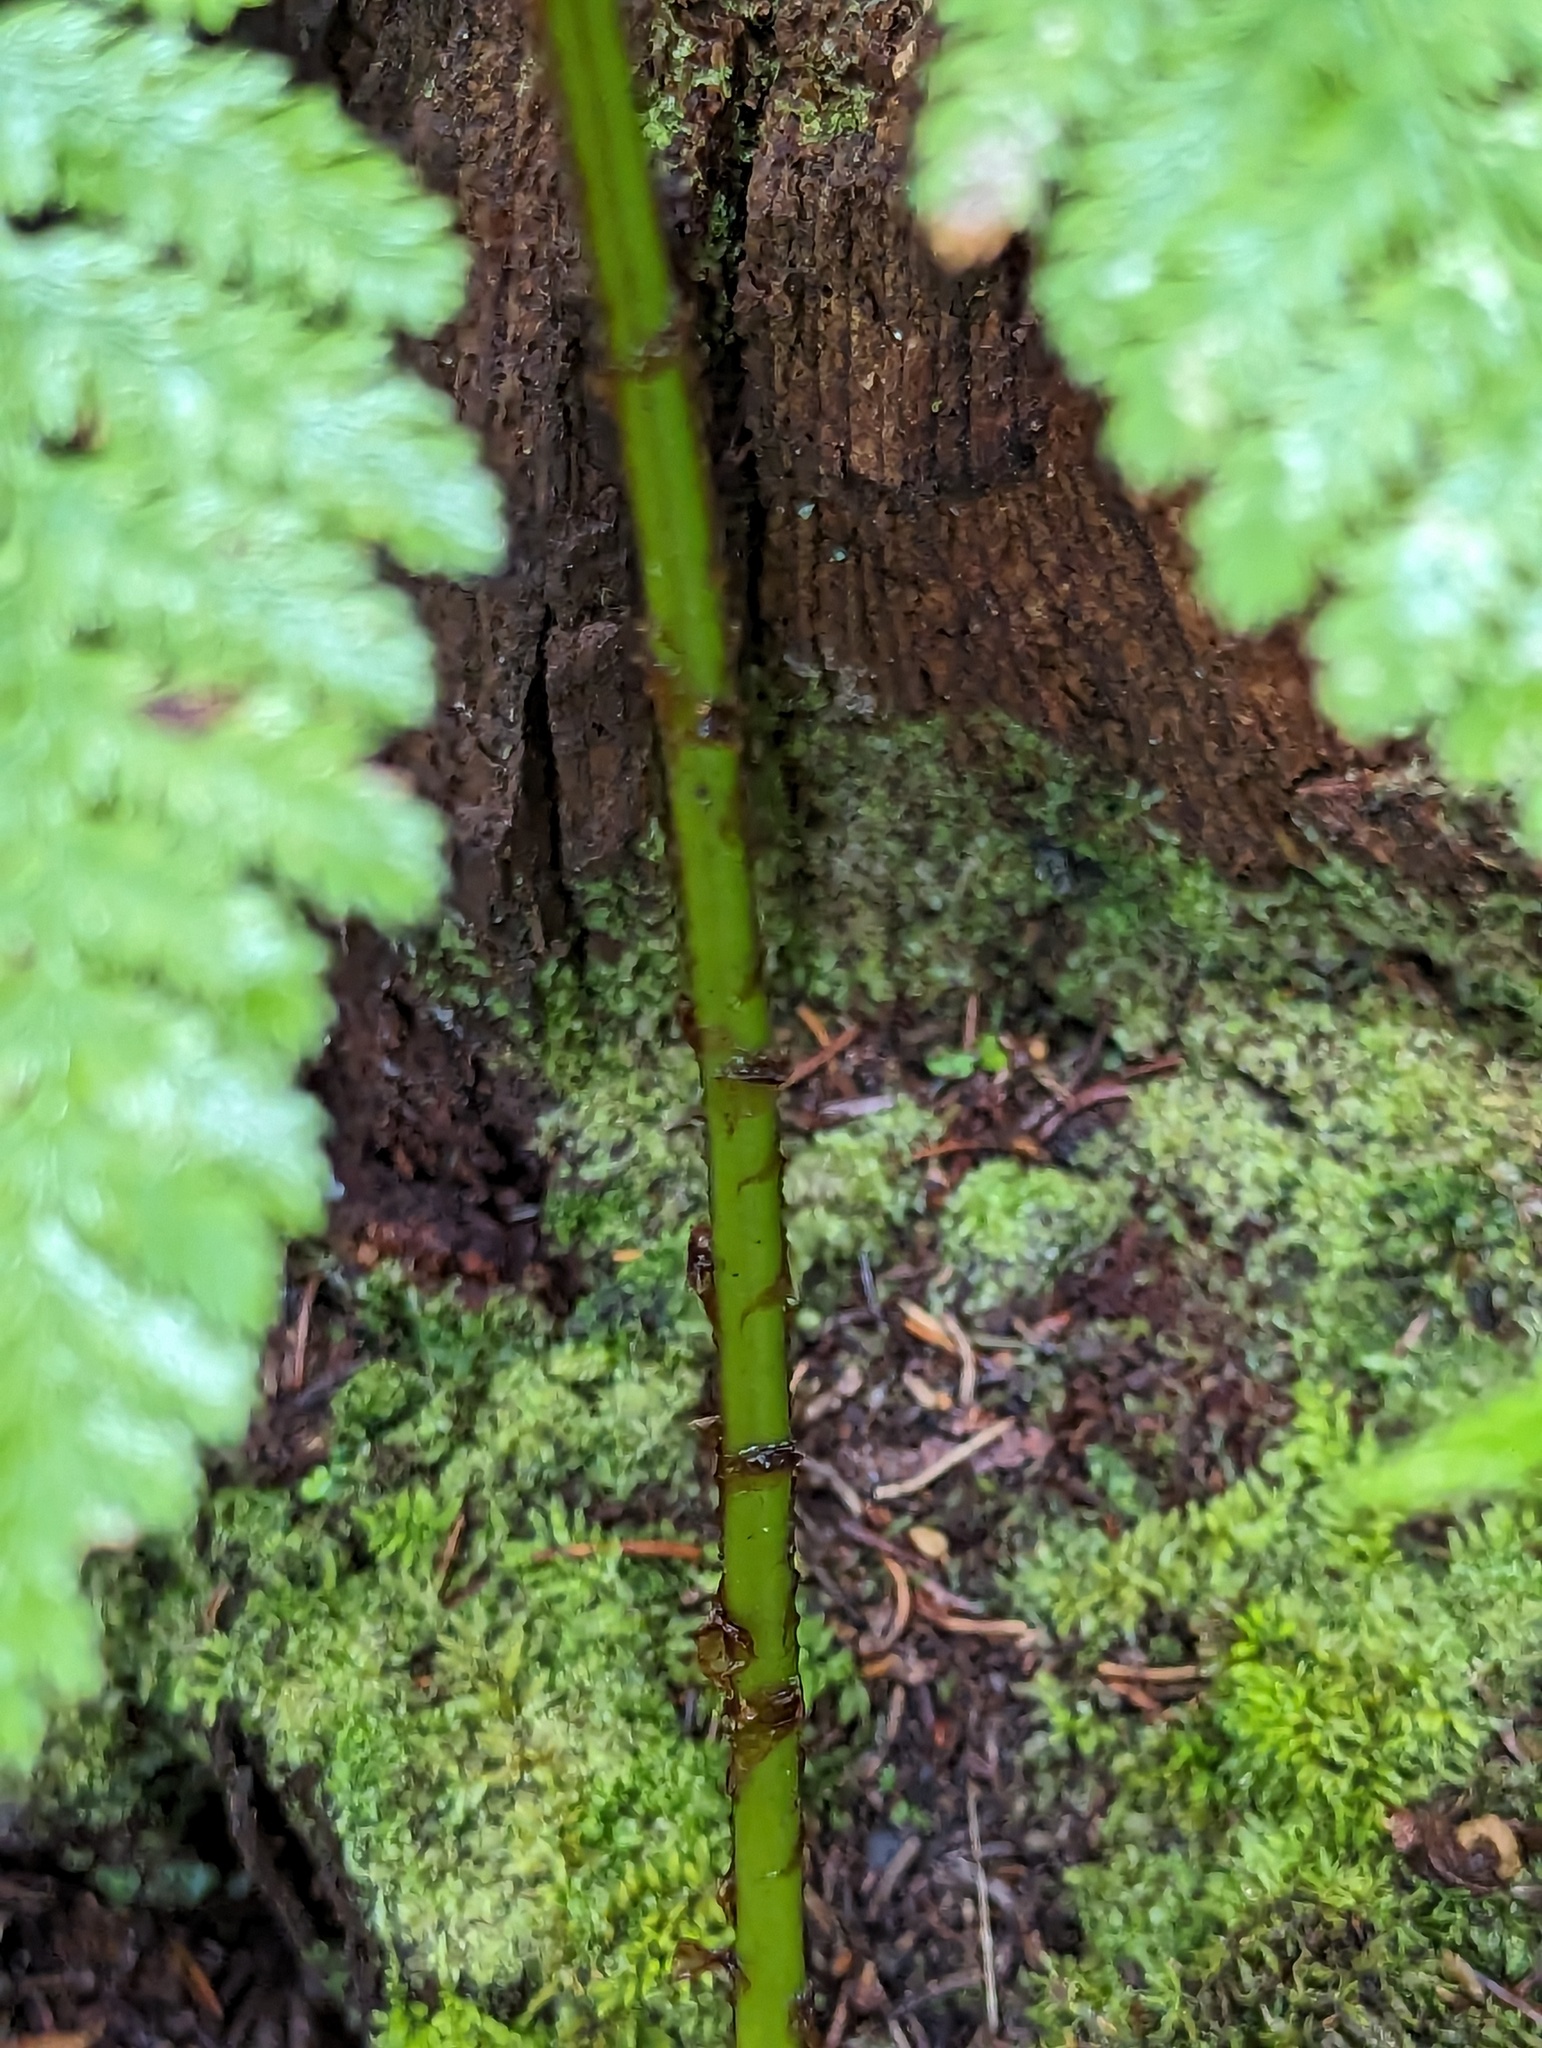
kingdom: Plantae
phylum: Tracheophyta
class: Polypodiopsida
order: Polypodiales
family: Dryopteridaceae
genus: Dryopteris
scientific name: Dryopteris campyloptera
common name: Mountain wood fern
